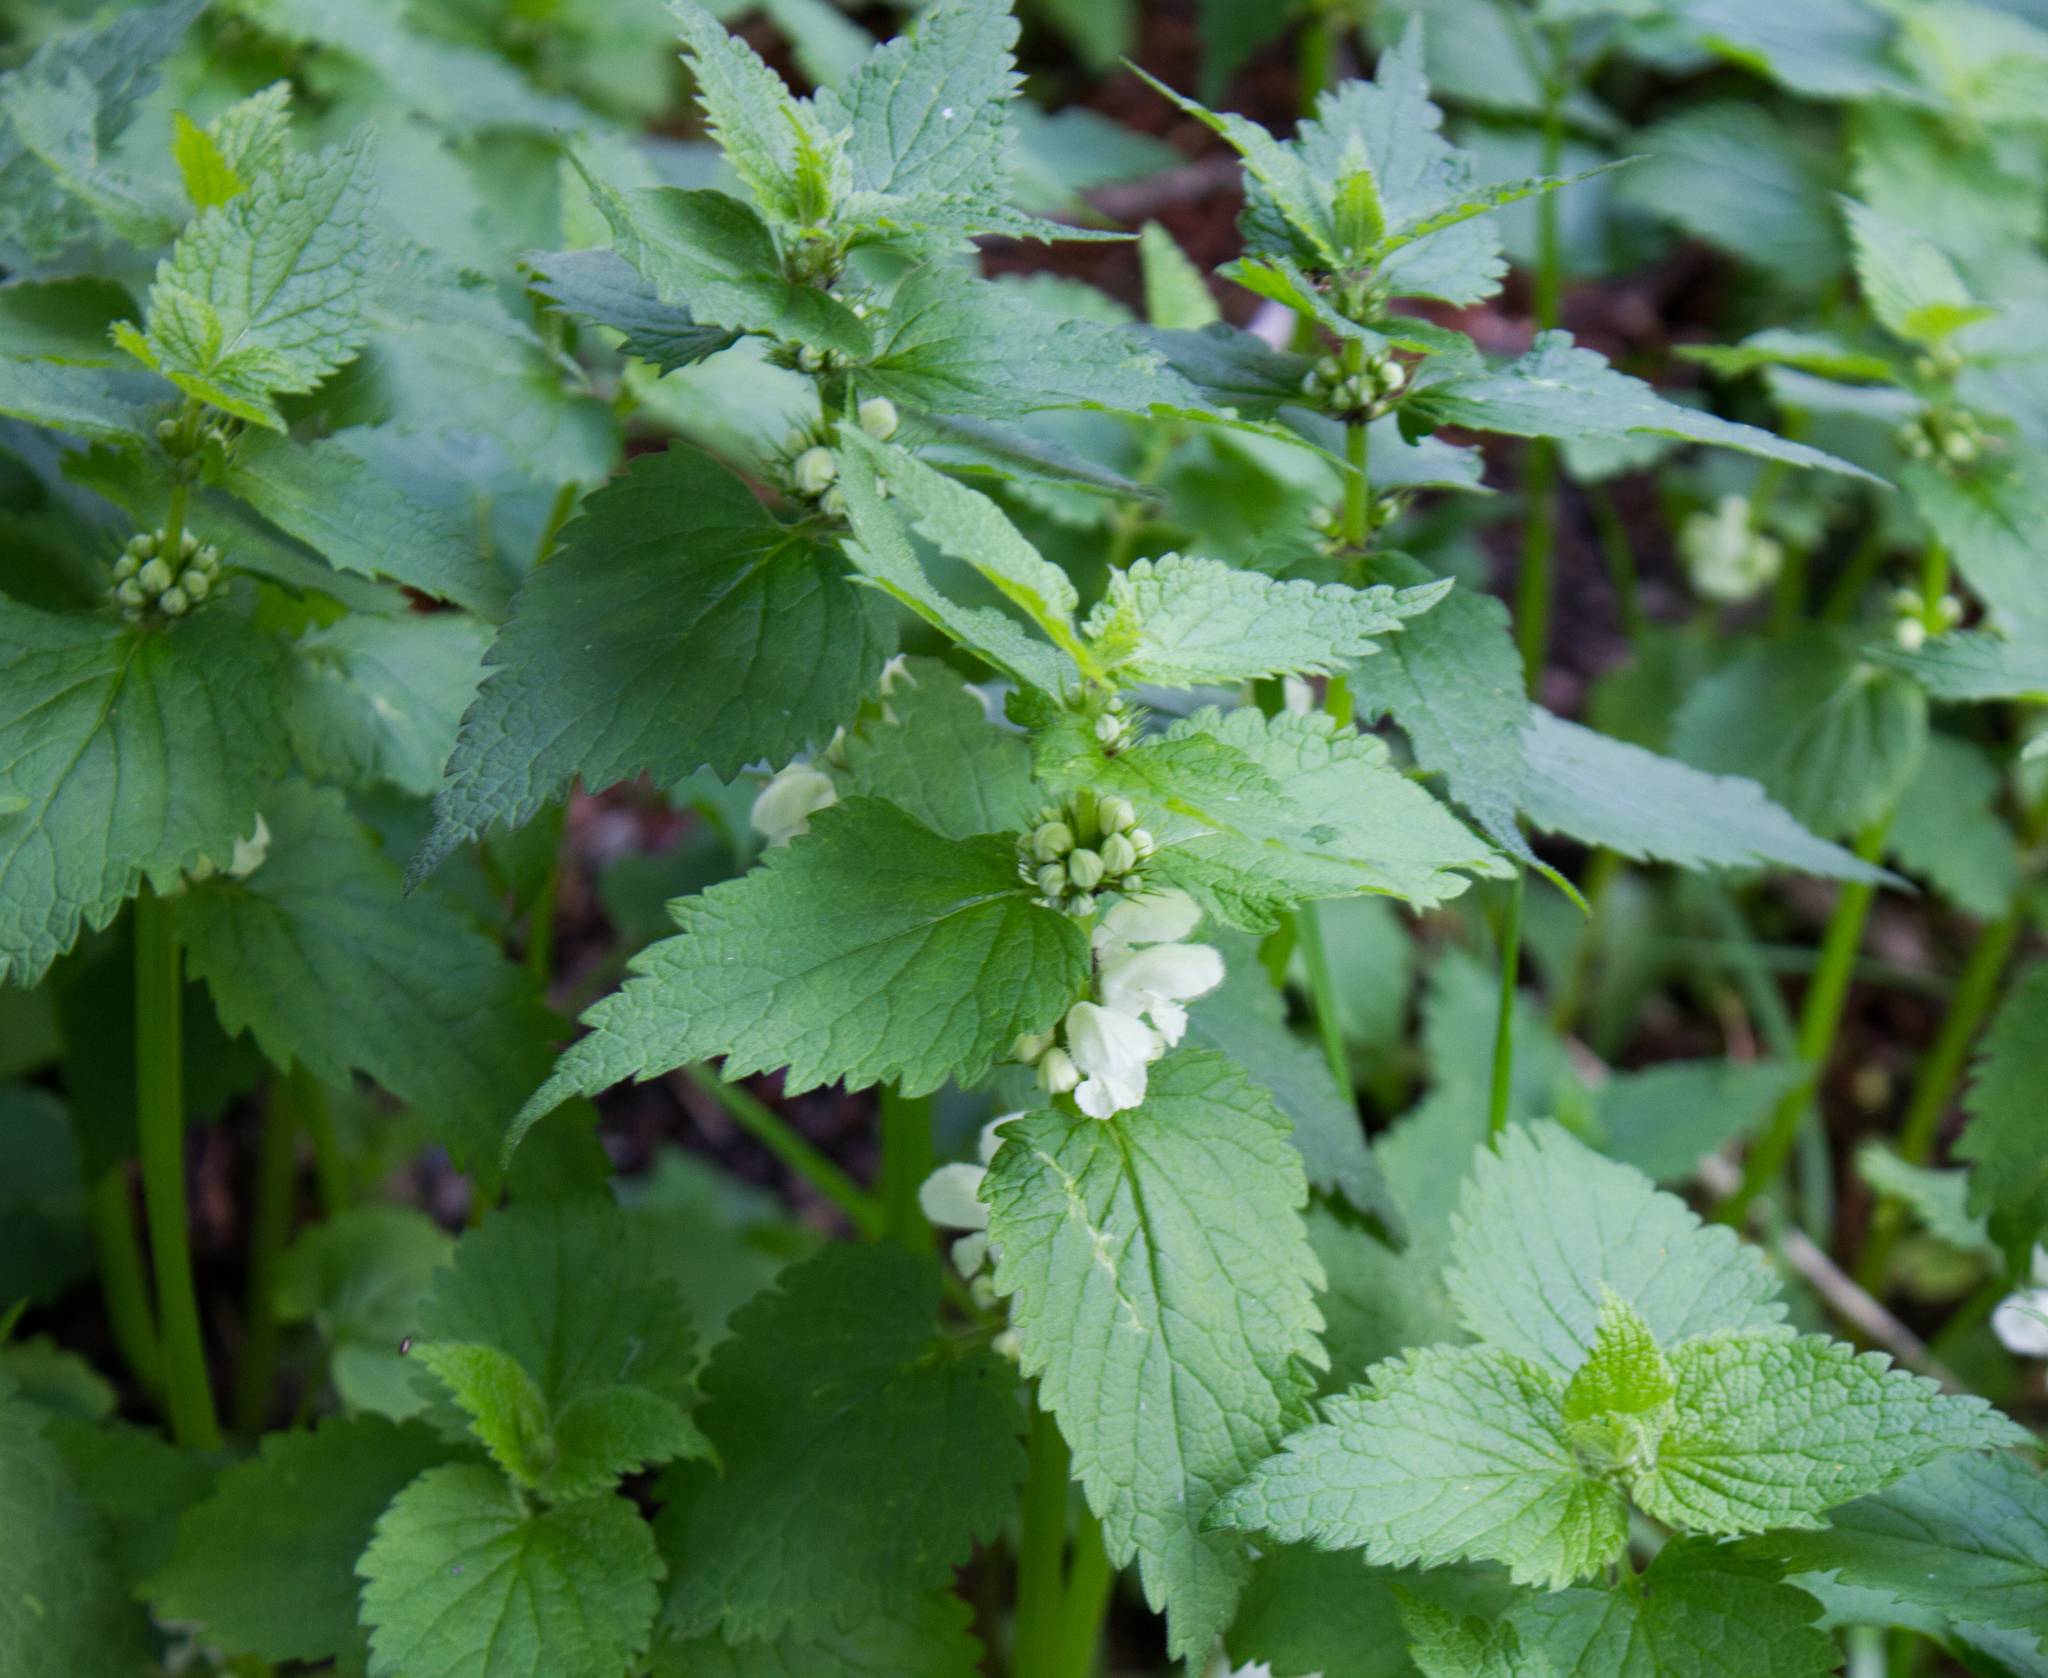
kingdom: Plantae
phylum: Tracheophyta
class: Magnoliopsida
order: Lamiales
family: Lamiaceae
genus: Lamium
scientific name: Lamium album
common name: White dead-nettle
